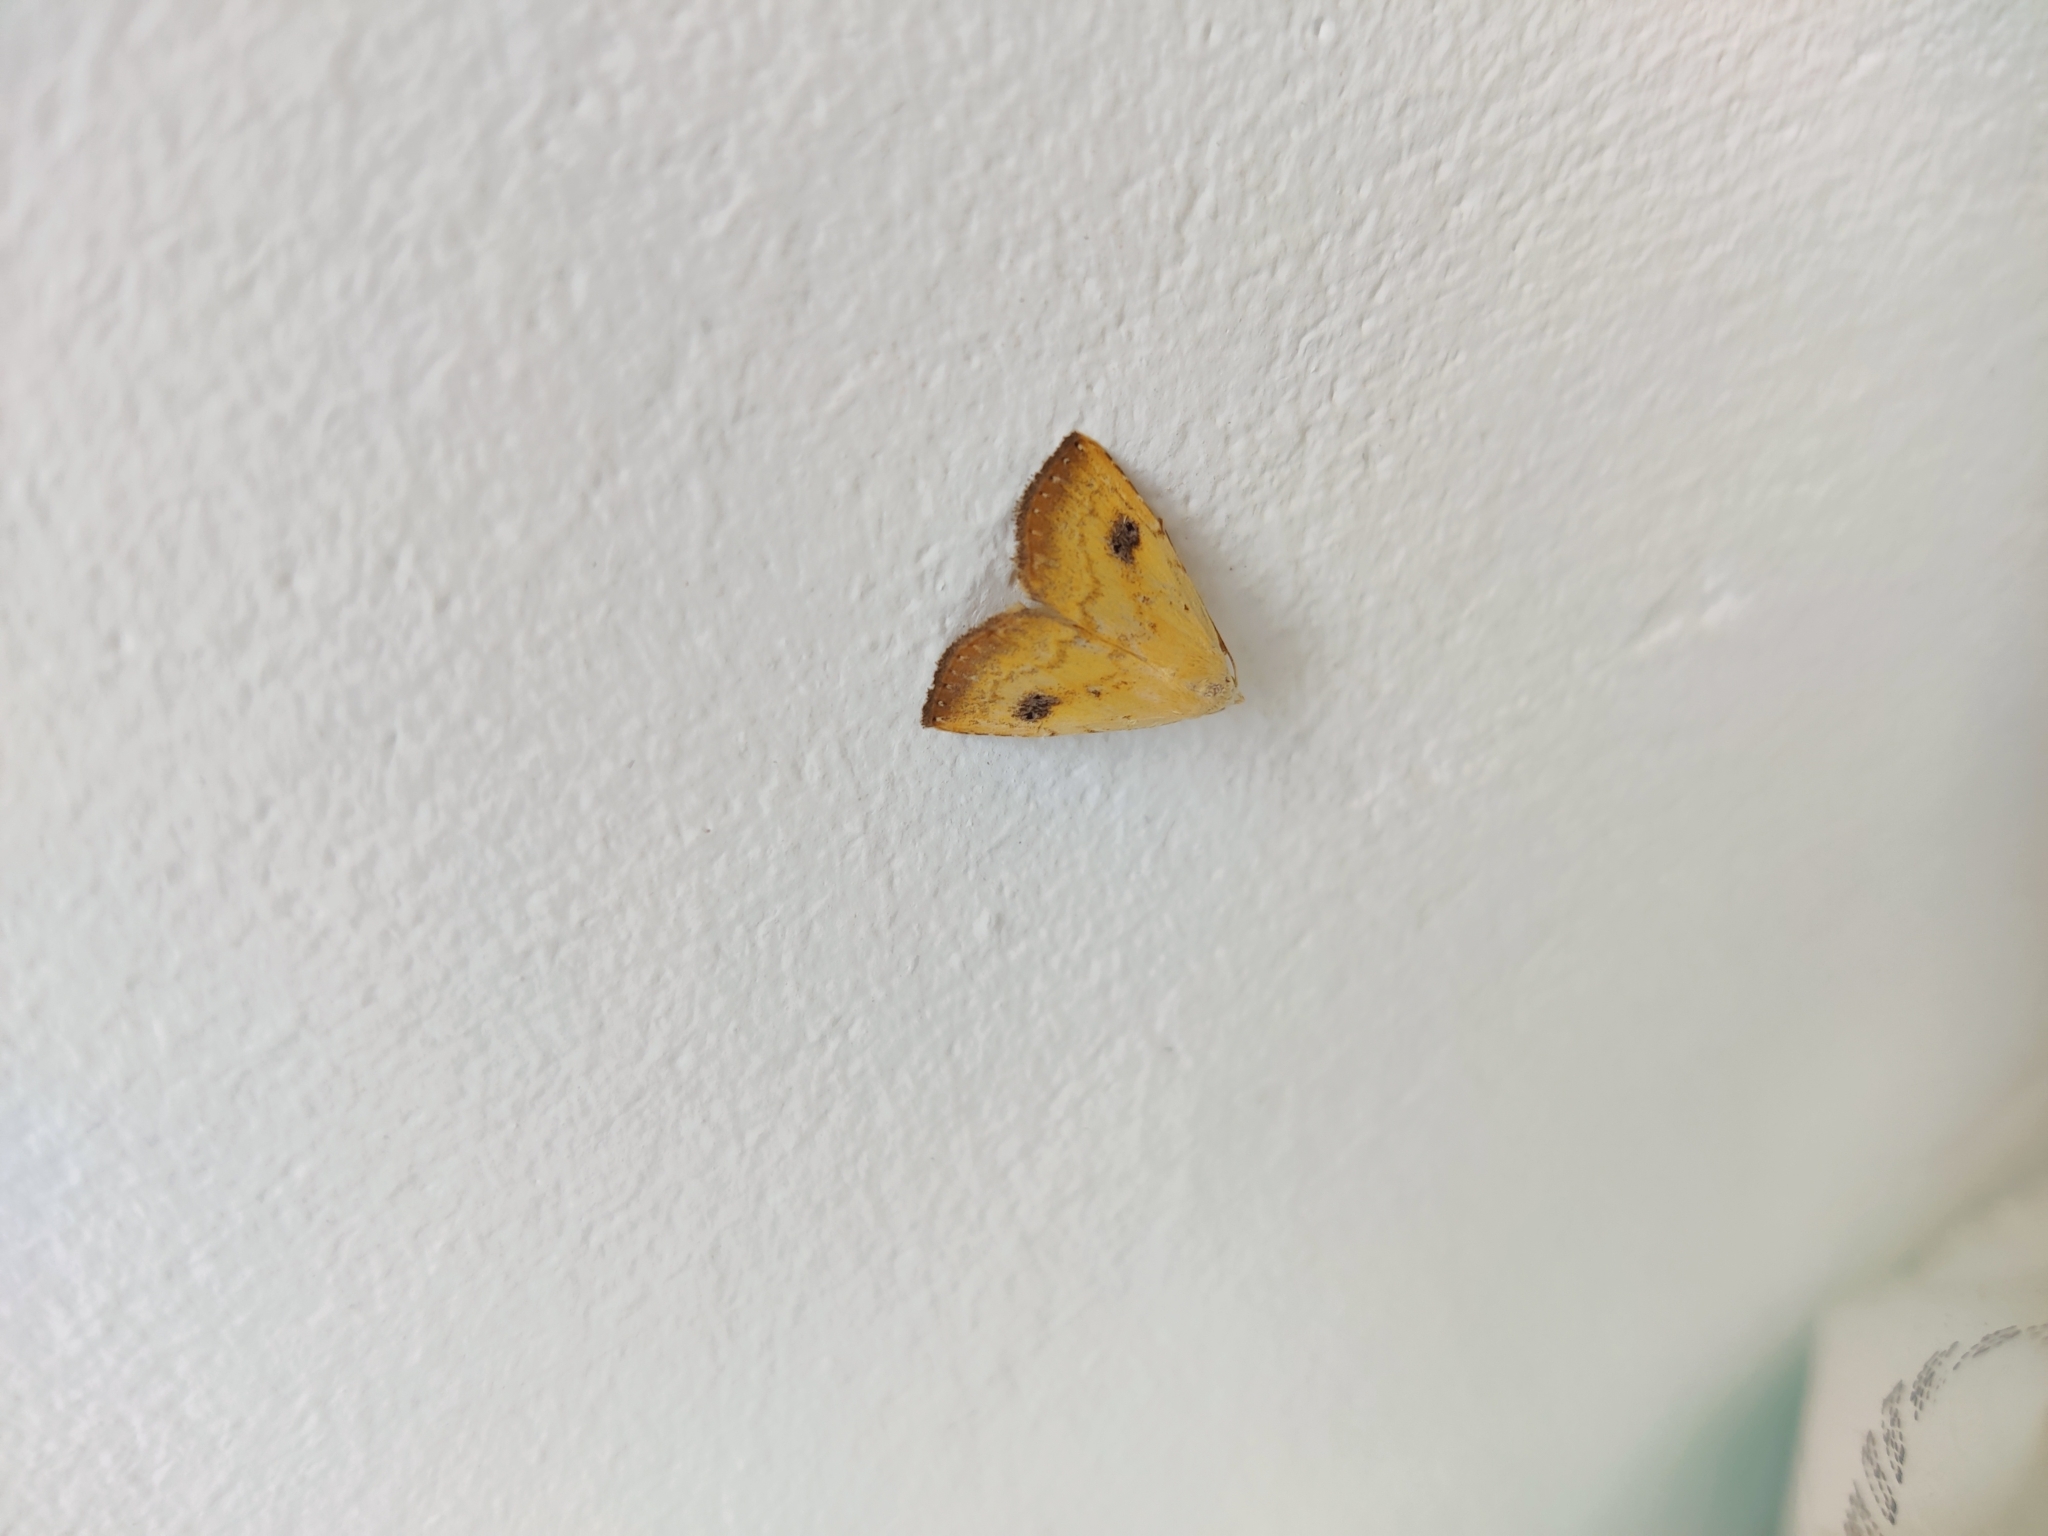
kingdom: Animalia
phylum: Arthropoda
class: Insecta
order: Lepidoptera
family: Erebidae
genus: Rivula
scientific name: Rivula sericealis
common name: Straw dot
